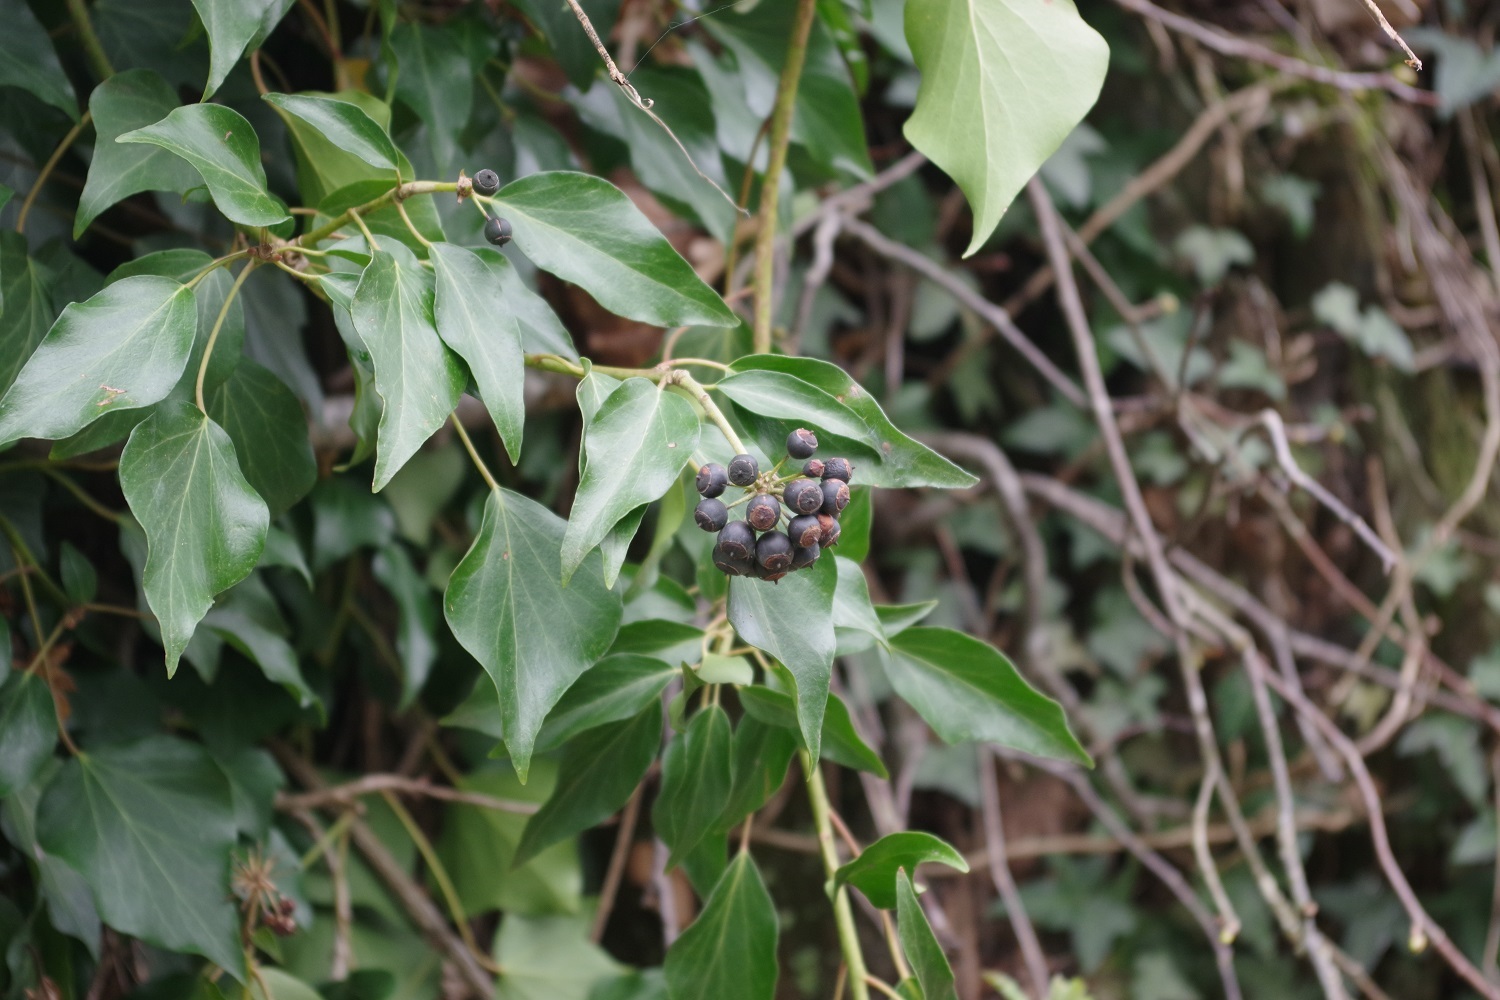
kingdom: Plantae
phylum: Tracheophyta
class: Magnoliopsida
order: Apiales
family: Araliaceae
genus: Hedera
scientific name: Hedera helix
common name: Ivy
